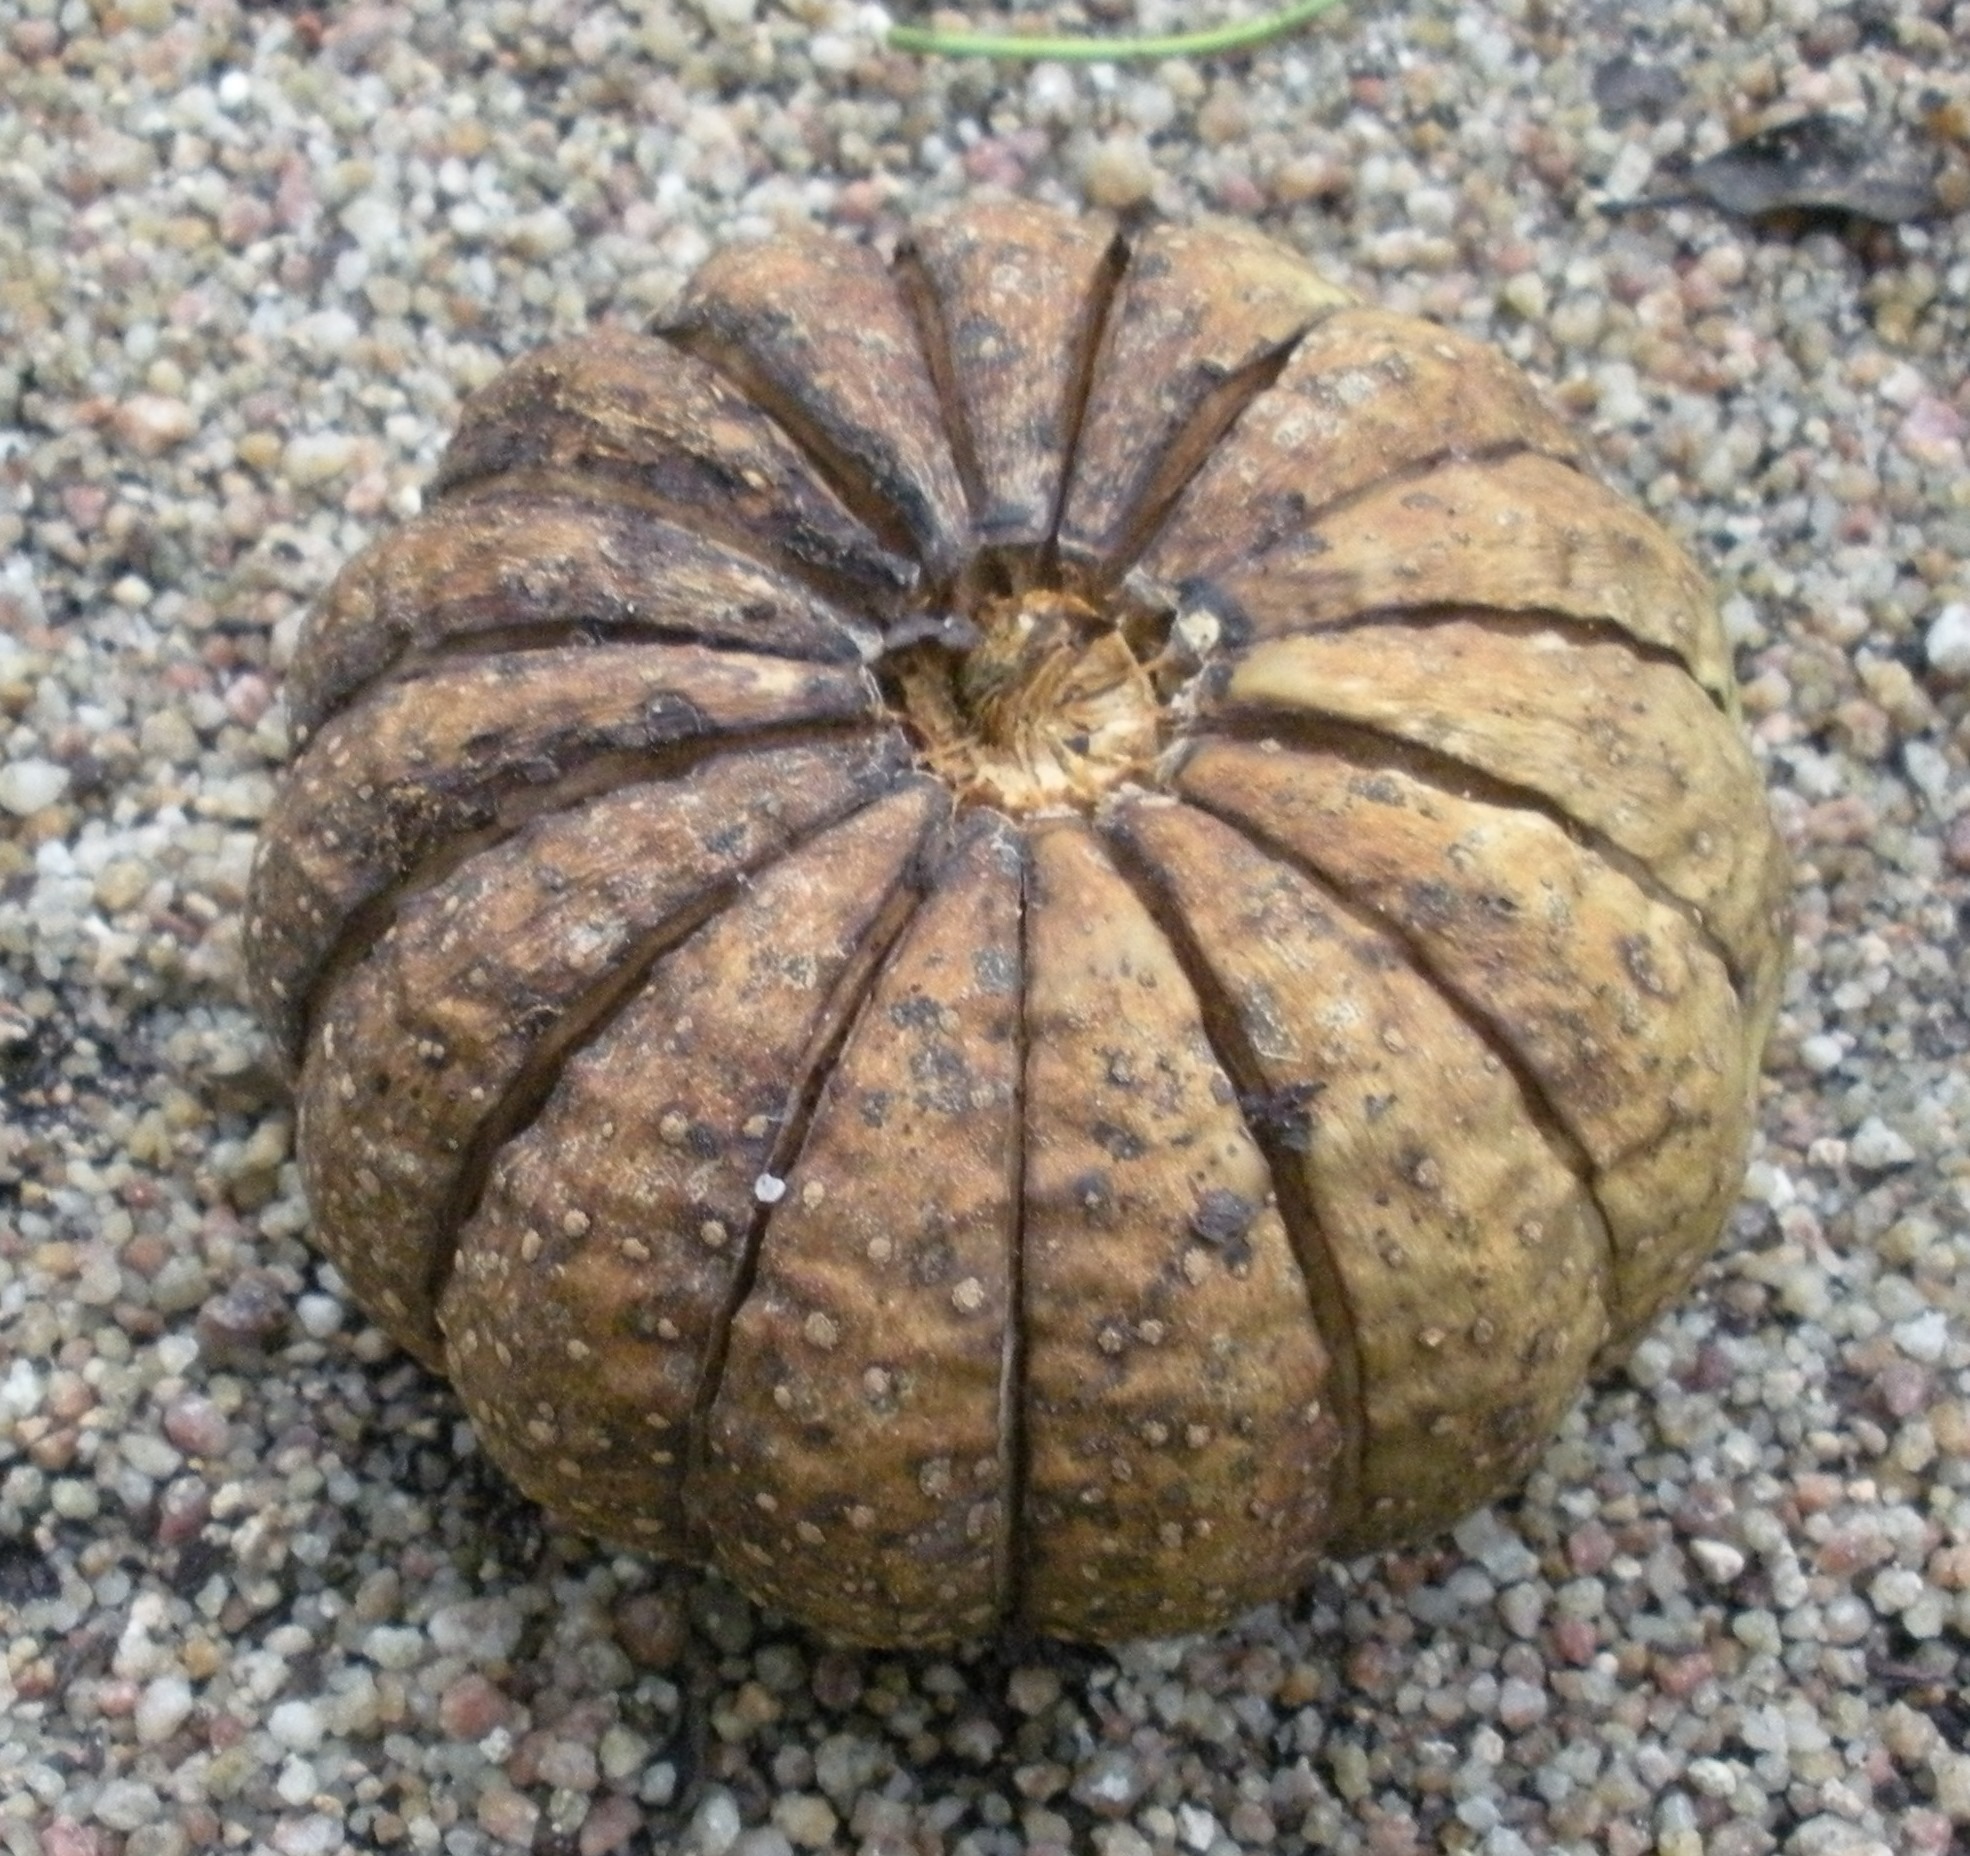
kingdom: Plantae
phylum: Tracheophyta
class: Magnoliopsida
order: Malpighiales
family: Euphorbiaceae
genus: Hura
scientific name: Hura polyandra
